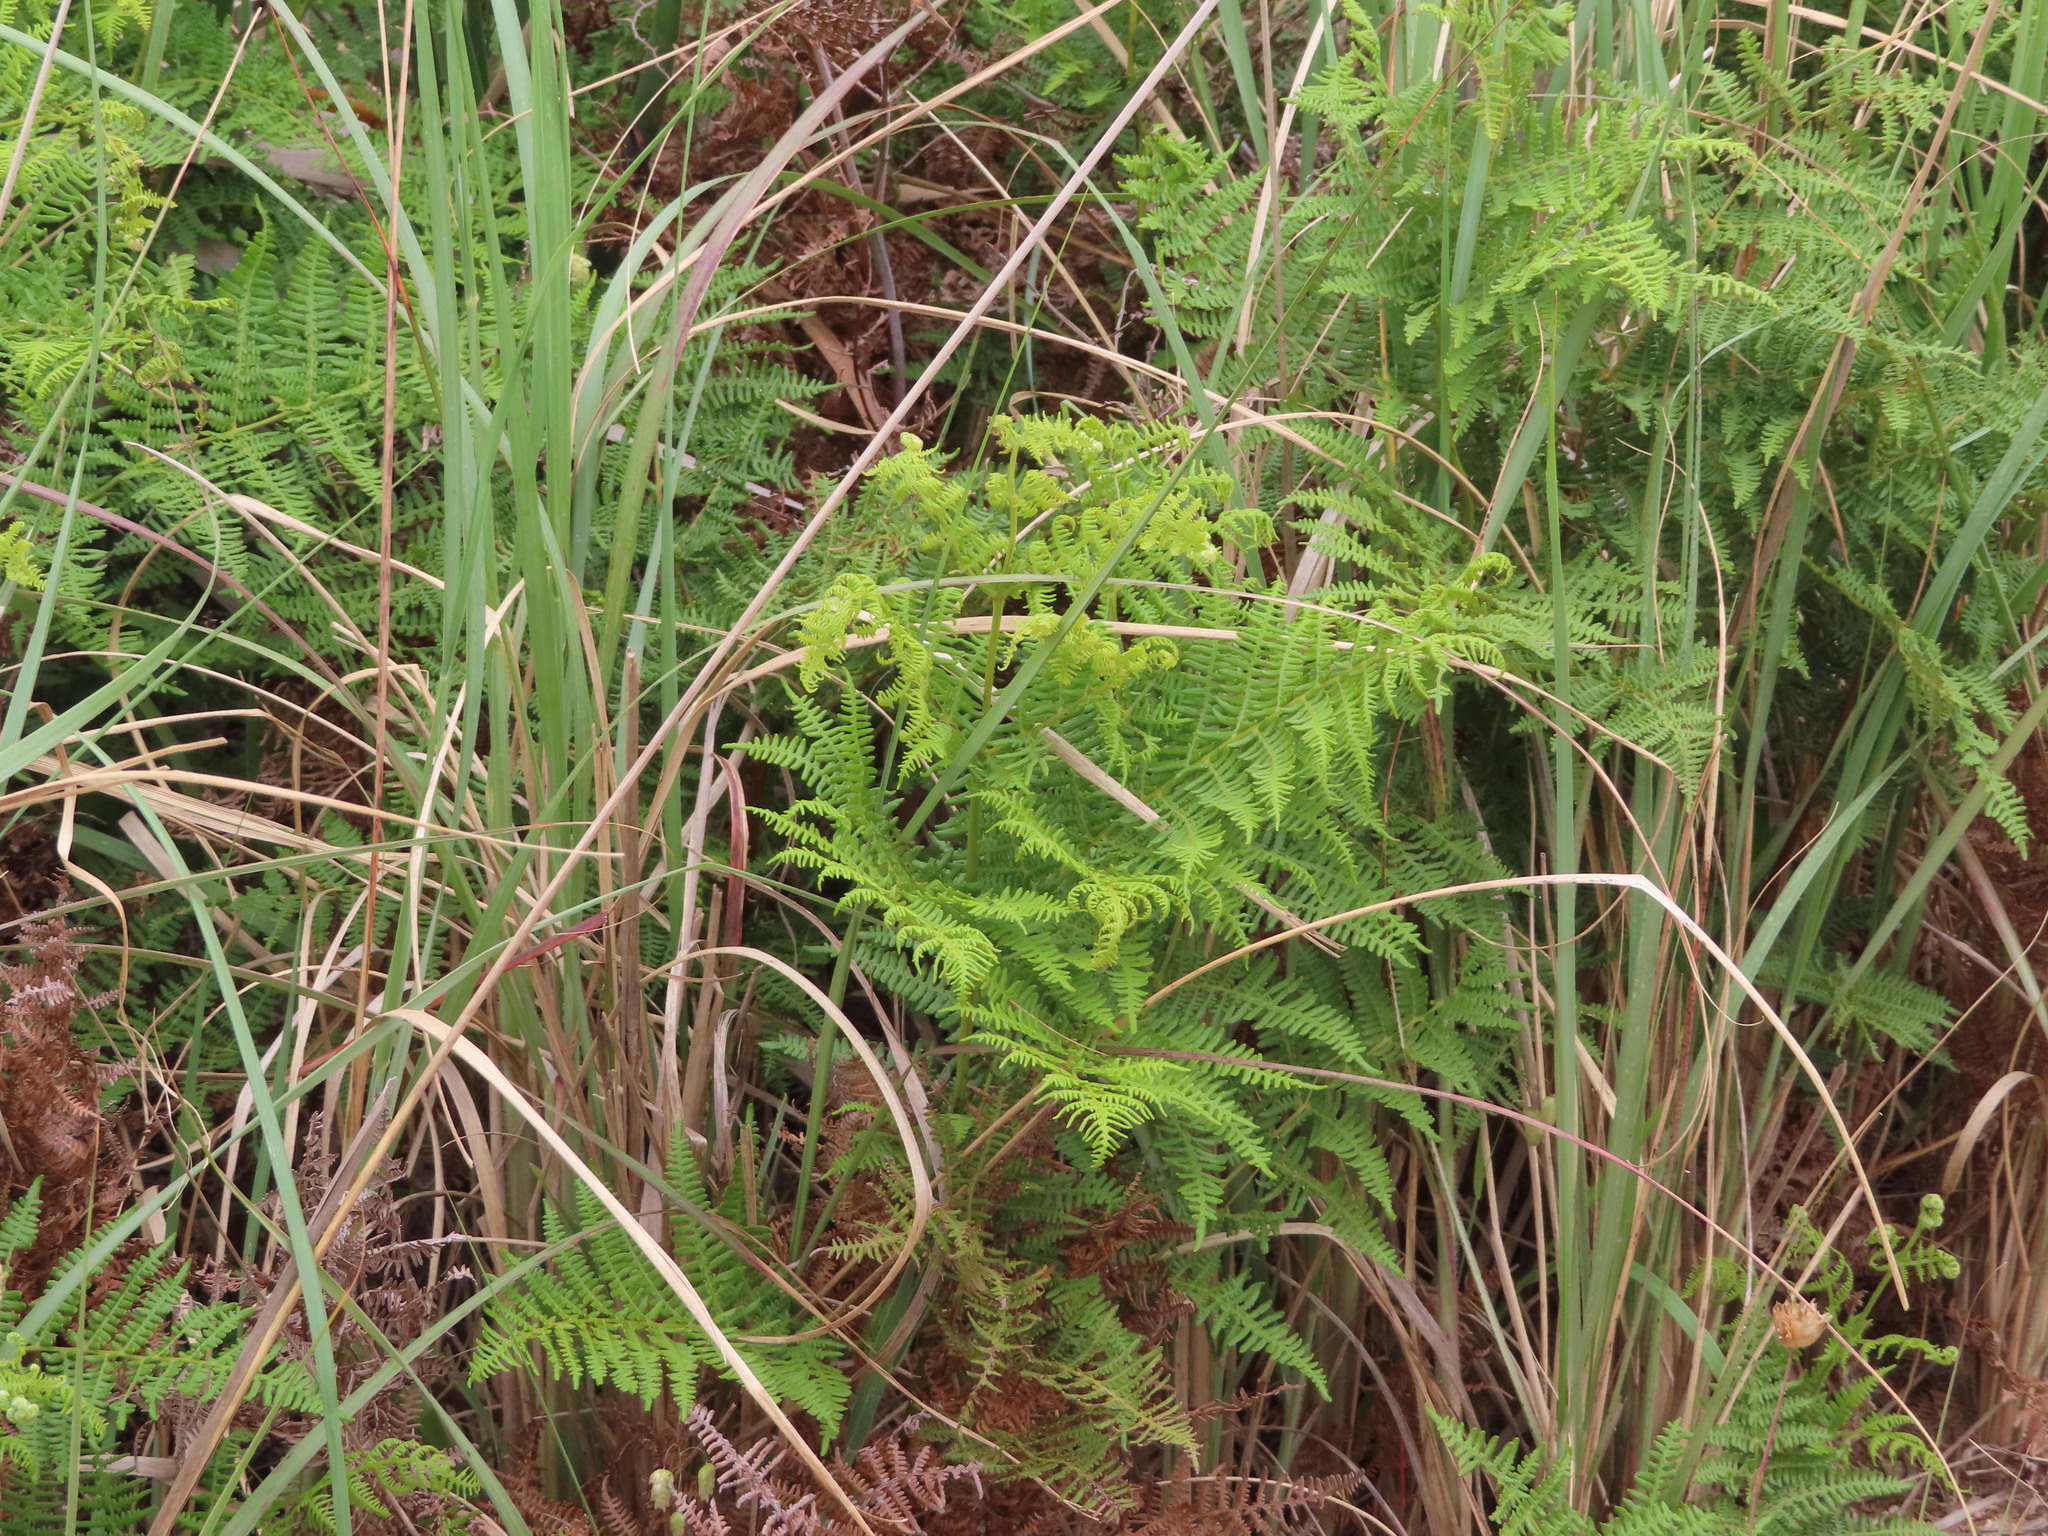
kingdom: Plantae
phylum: Tracheophyta
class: Liliopsida
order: Poales
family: Poaceae
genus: Cenchrus
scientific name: Cenchrus caudatus
